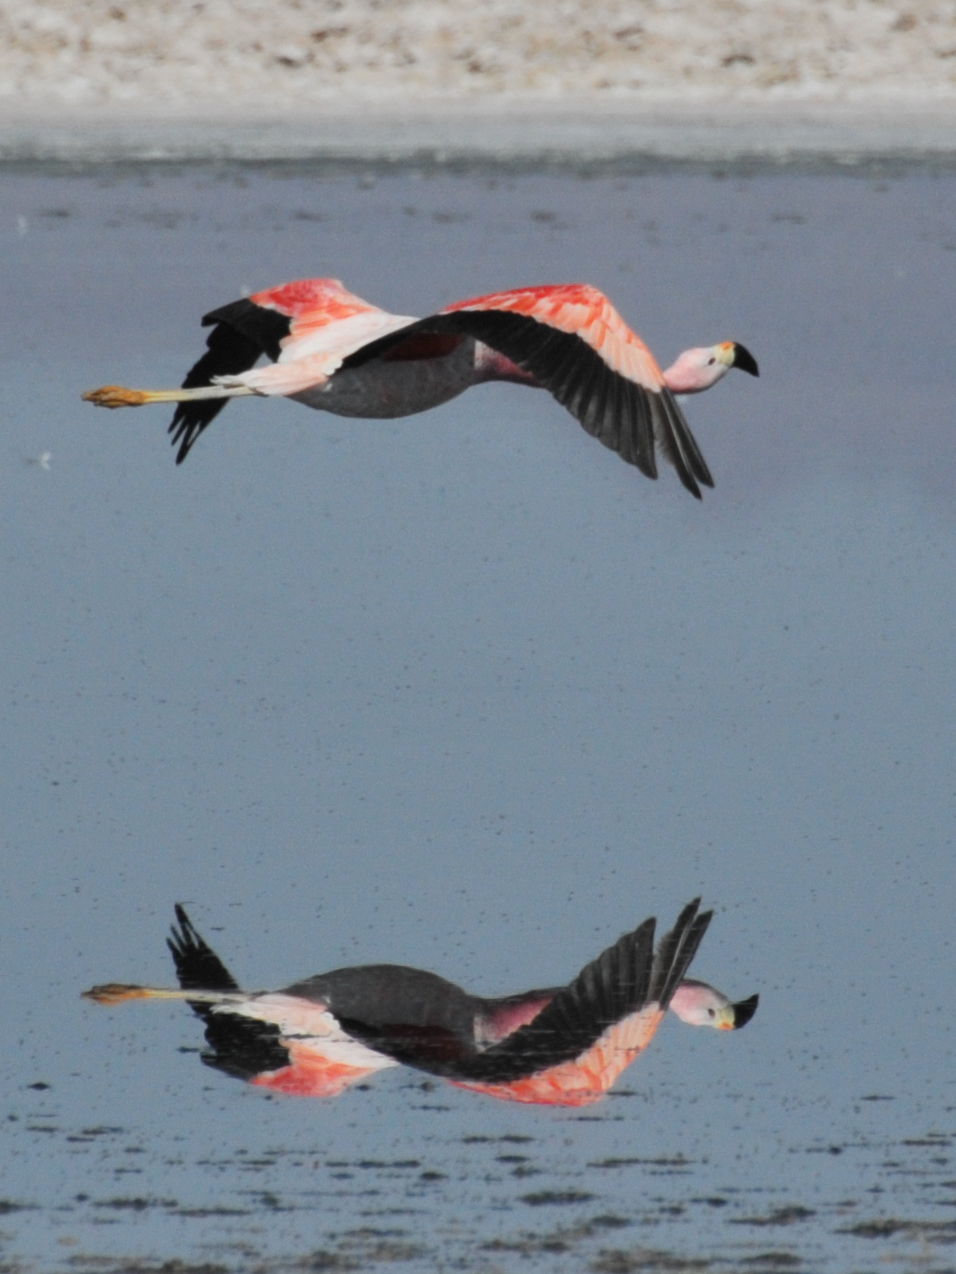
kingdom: Animalia
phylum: Chordata
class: Aves
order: Phoenicopteriformes
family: Phoenicopteridae
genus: Phoenicoparrus
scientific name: Phoenicoparrus andinus
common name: Andean flamingo
